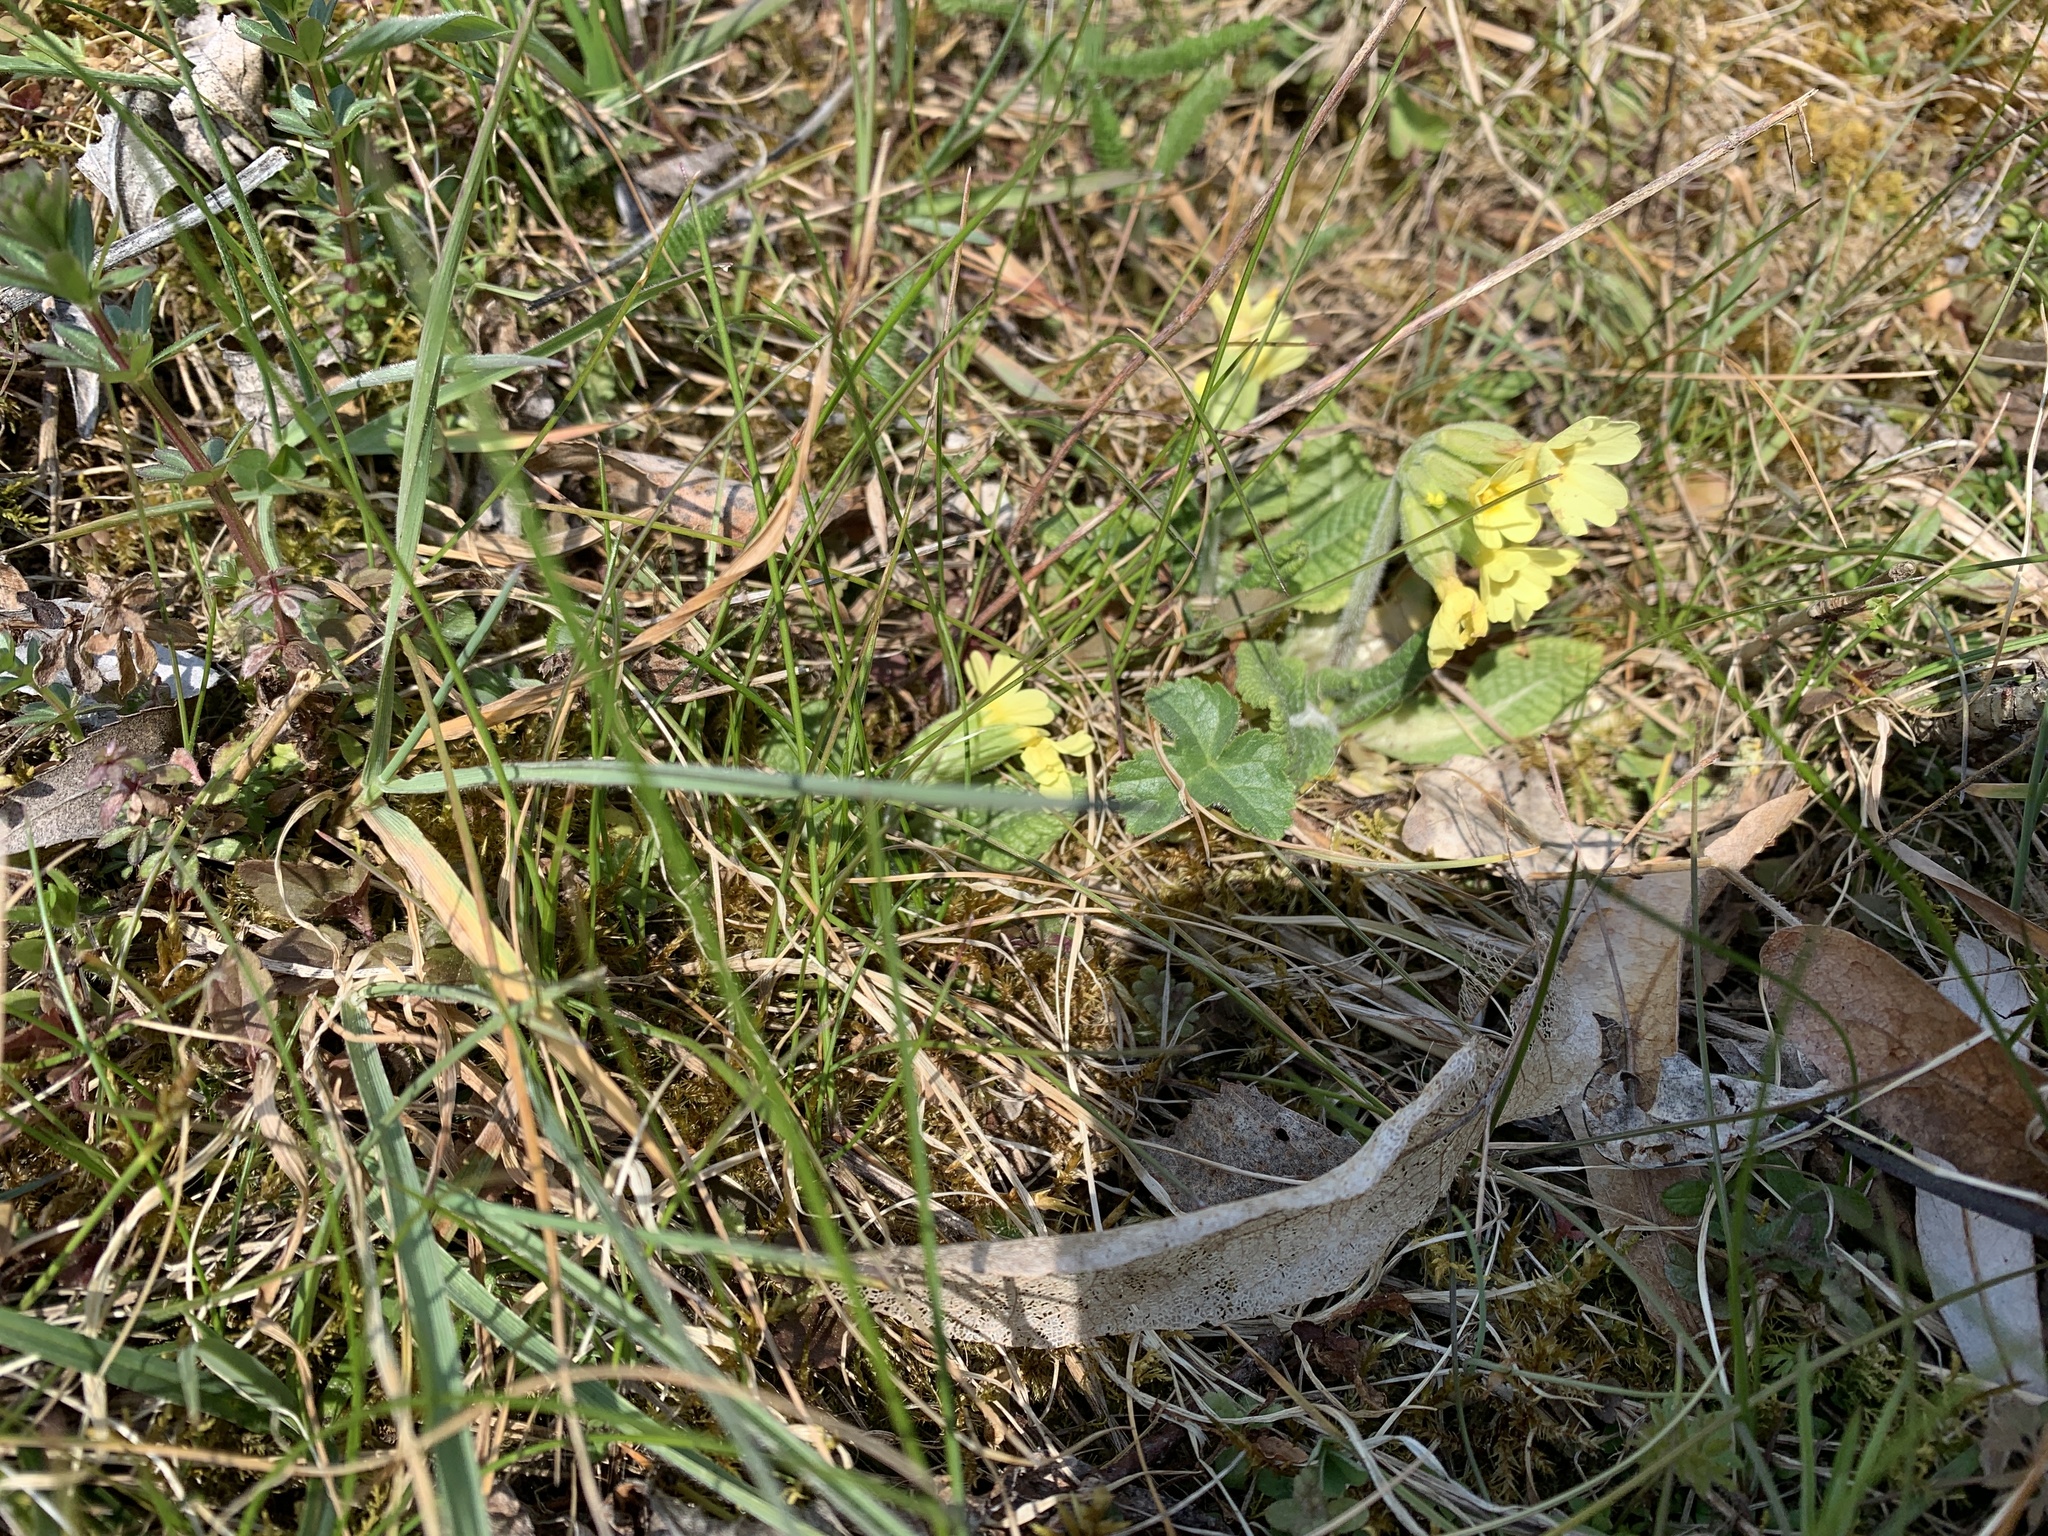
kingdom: Plantae
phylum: Tracheophyta
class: Magnoliopsida
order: Ericales
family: Primulaceae
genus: Primula
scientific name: Primula elatior
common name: Oxlip
